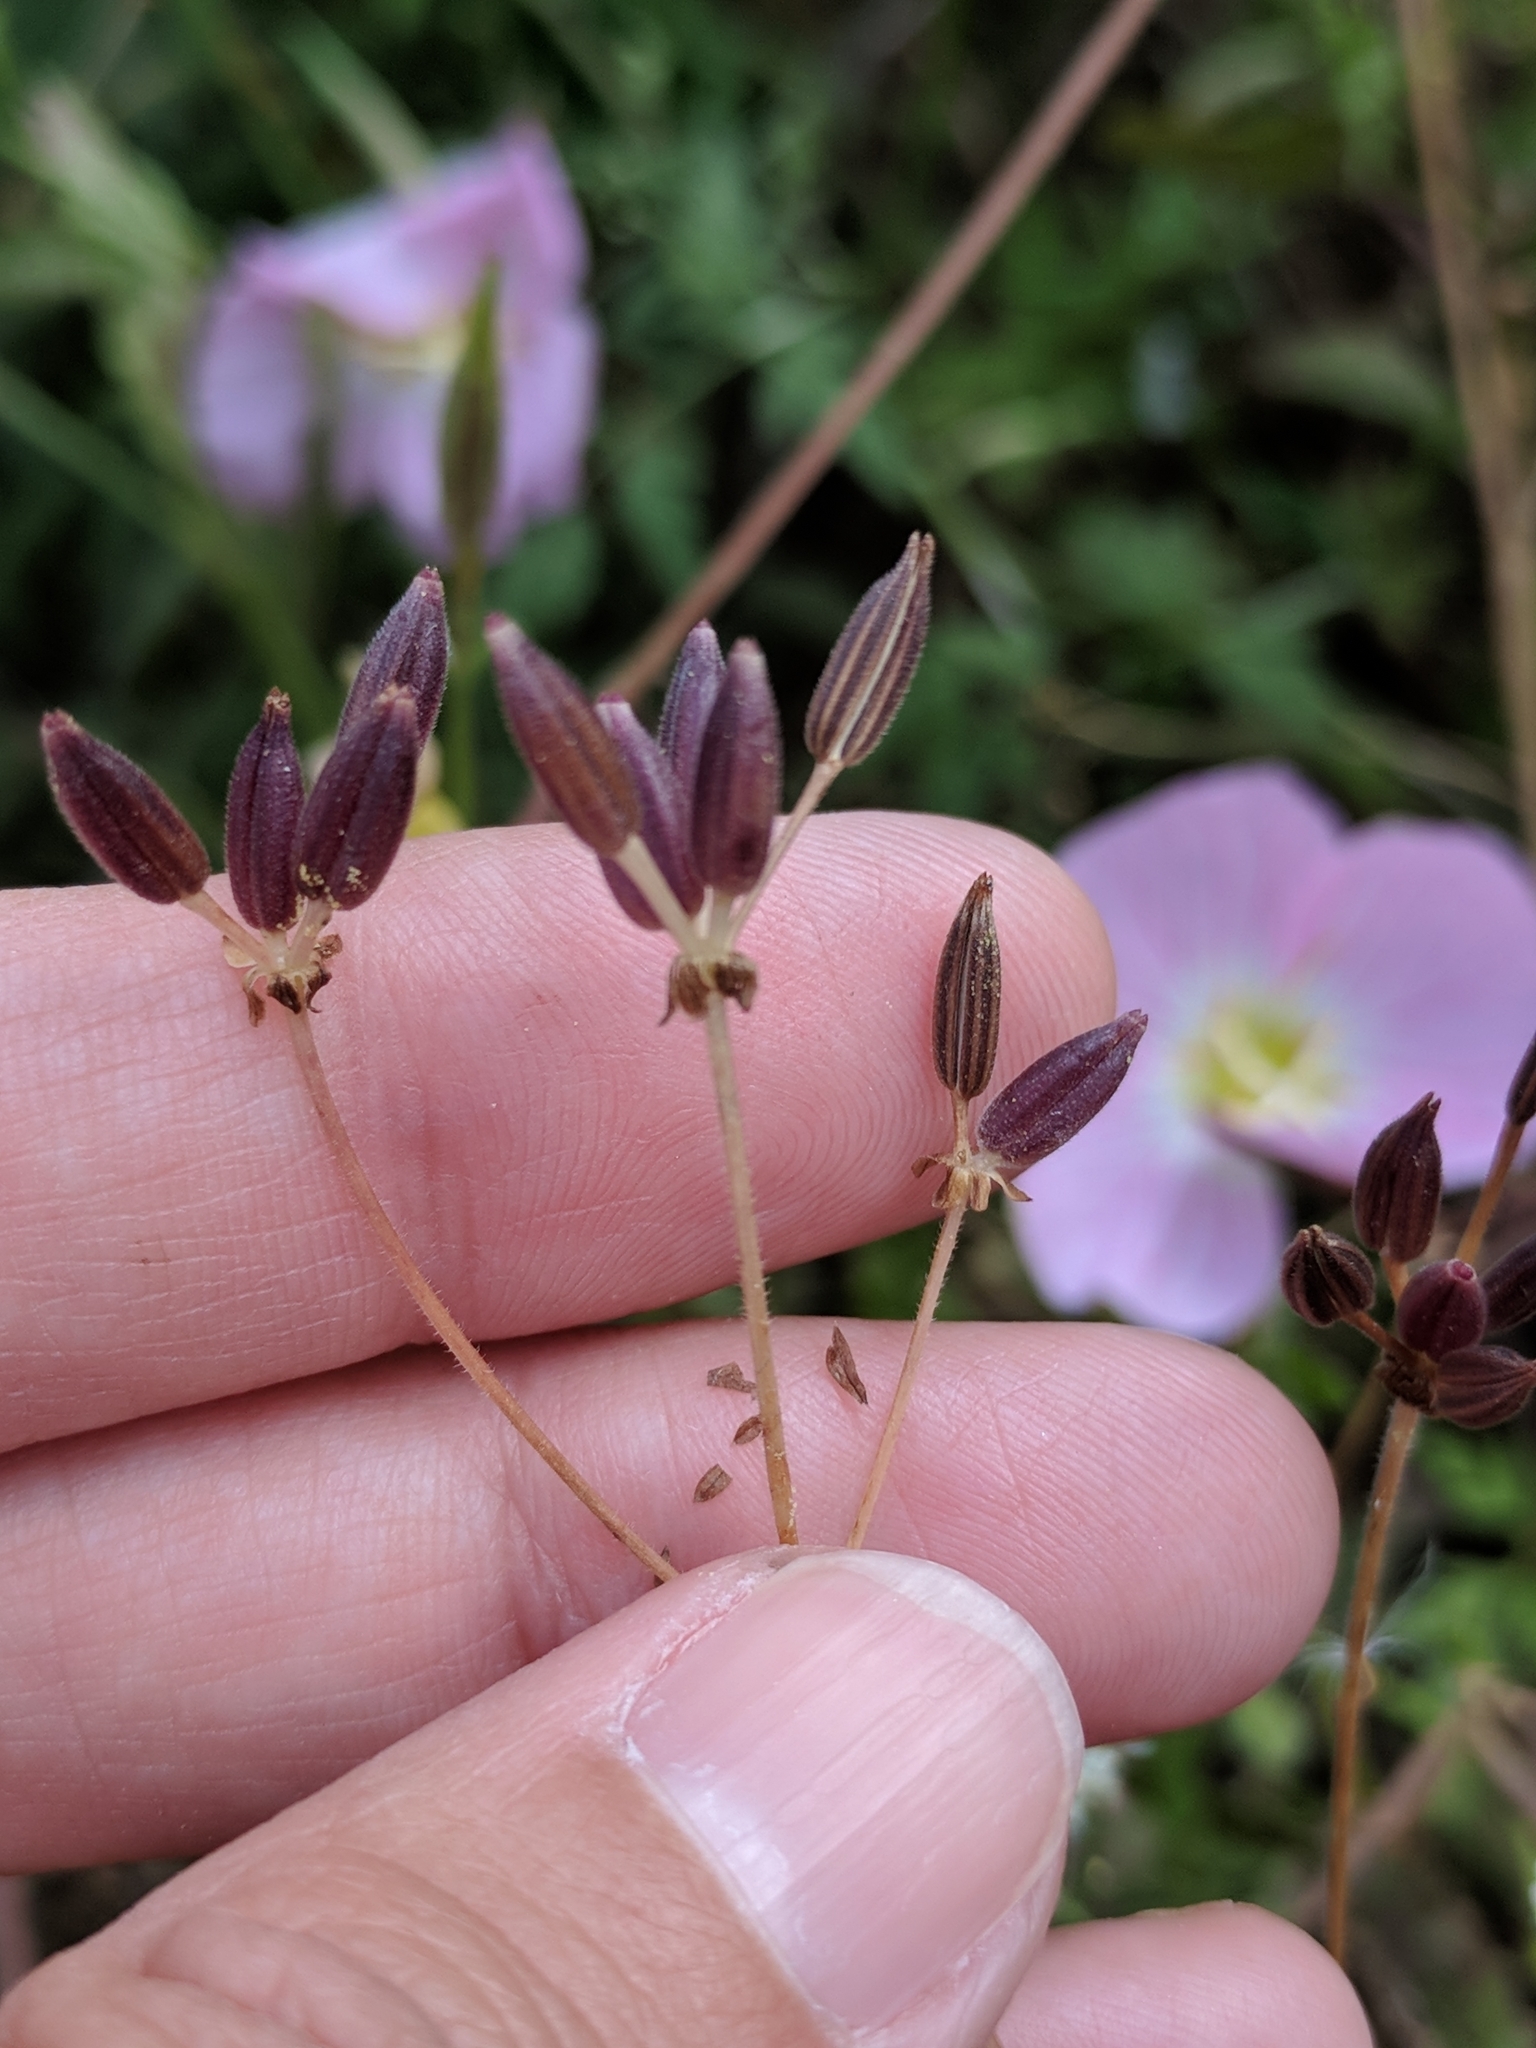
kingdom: Plantae
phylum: Tracheophyta
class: Magnoliopsida
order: Apiales
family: Apiaceae
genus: Chaerophyllum
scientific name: Chaerophyllum tainturieri
